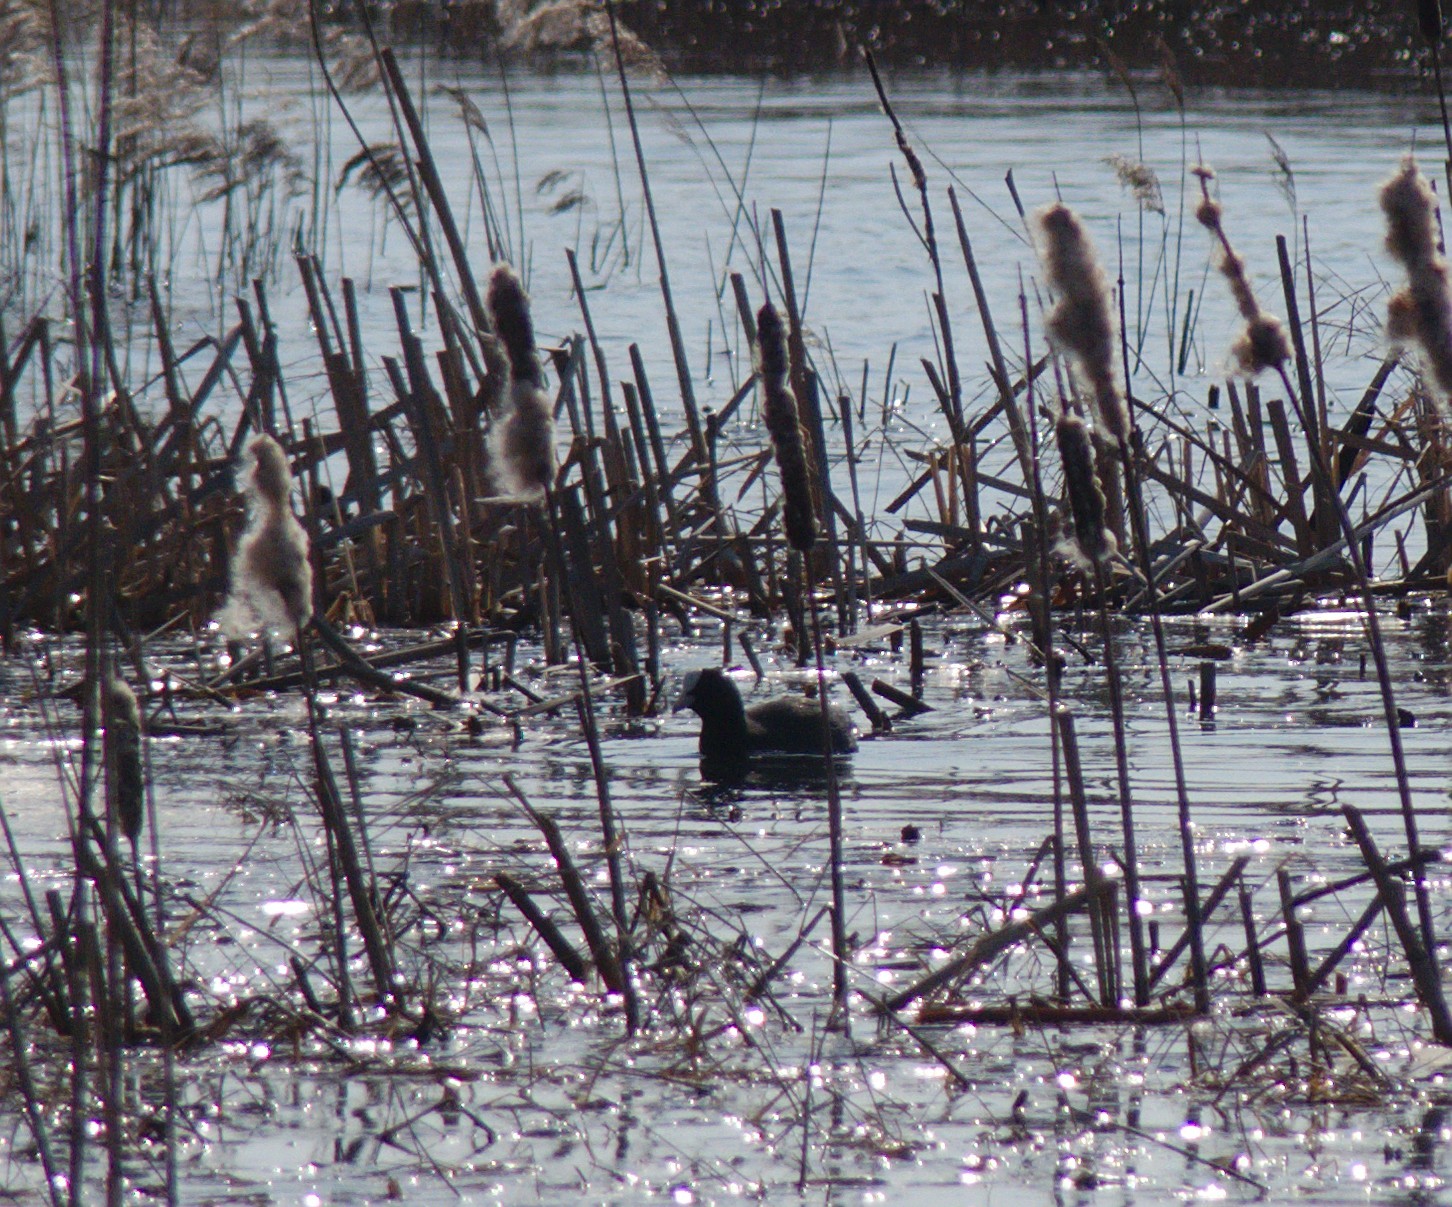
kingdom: Animalia
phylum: Chordata
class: Aves
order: Gruiformes
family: Rallidae
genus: Fulica
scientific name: Fulica atra
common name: Eurasian coot
